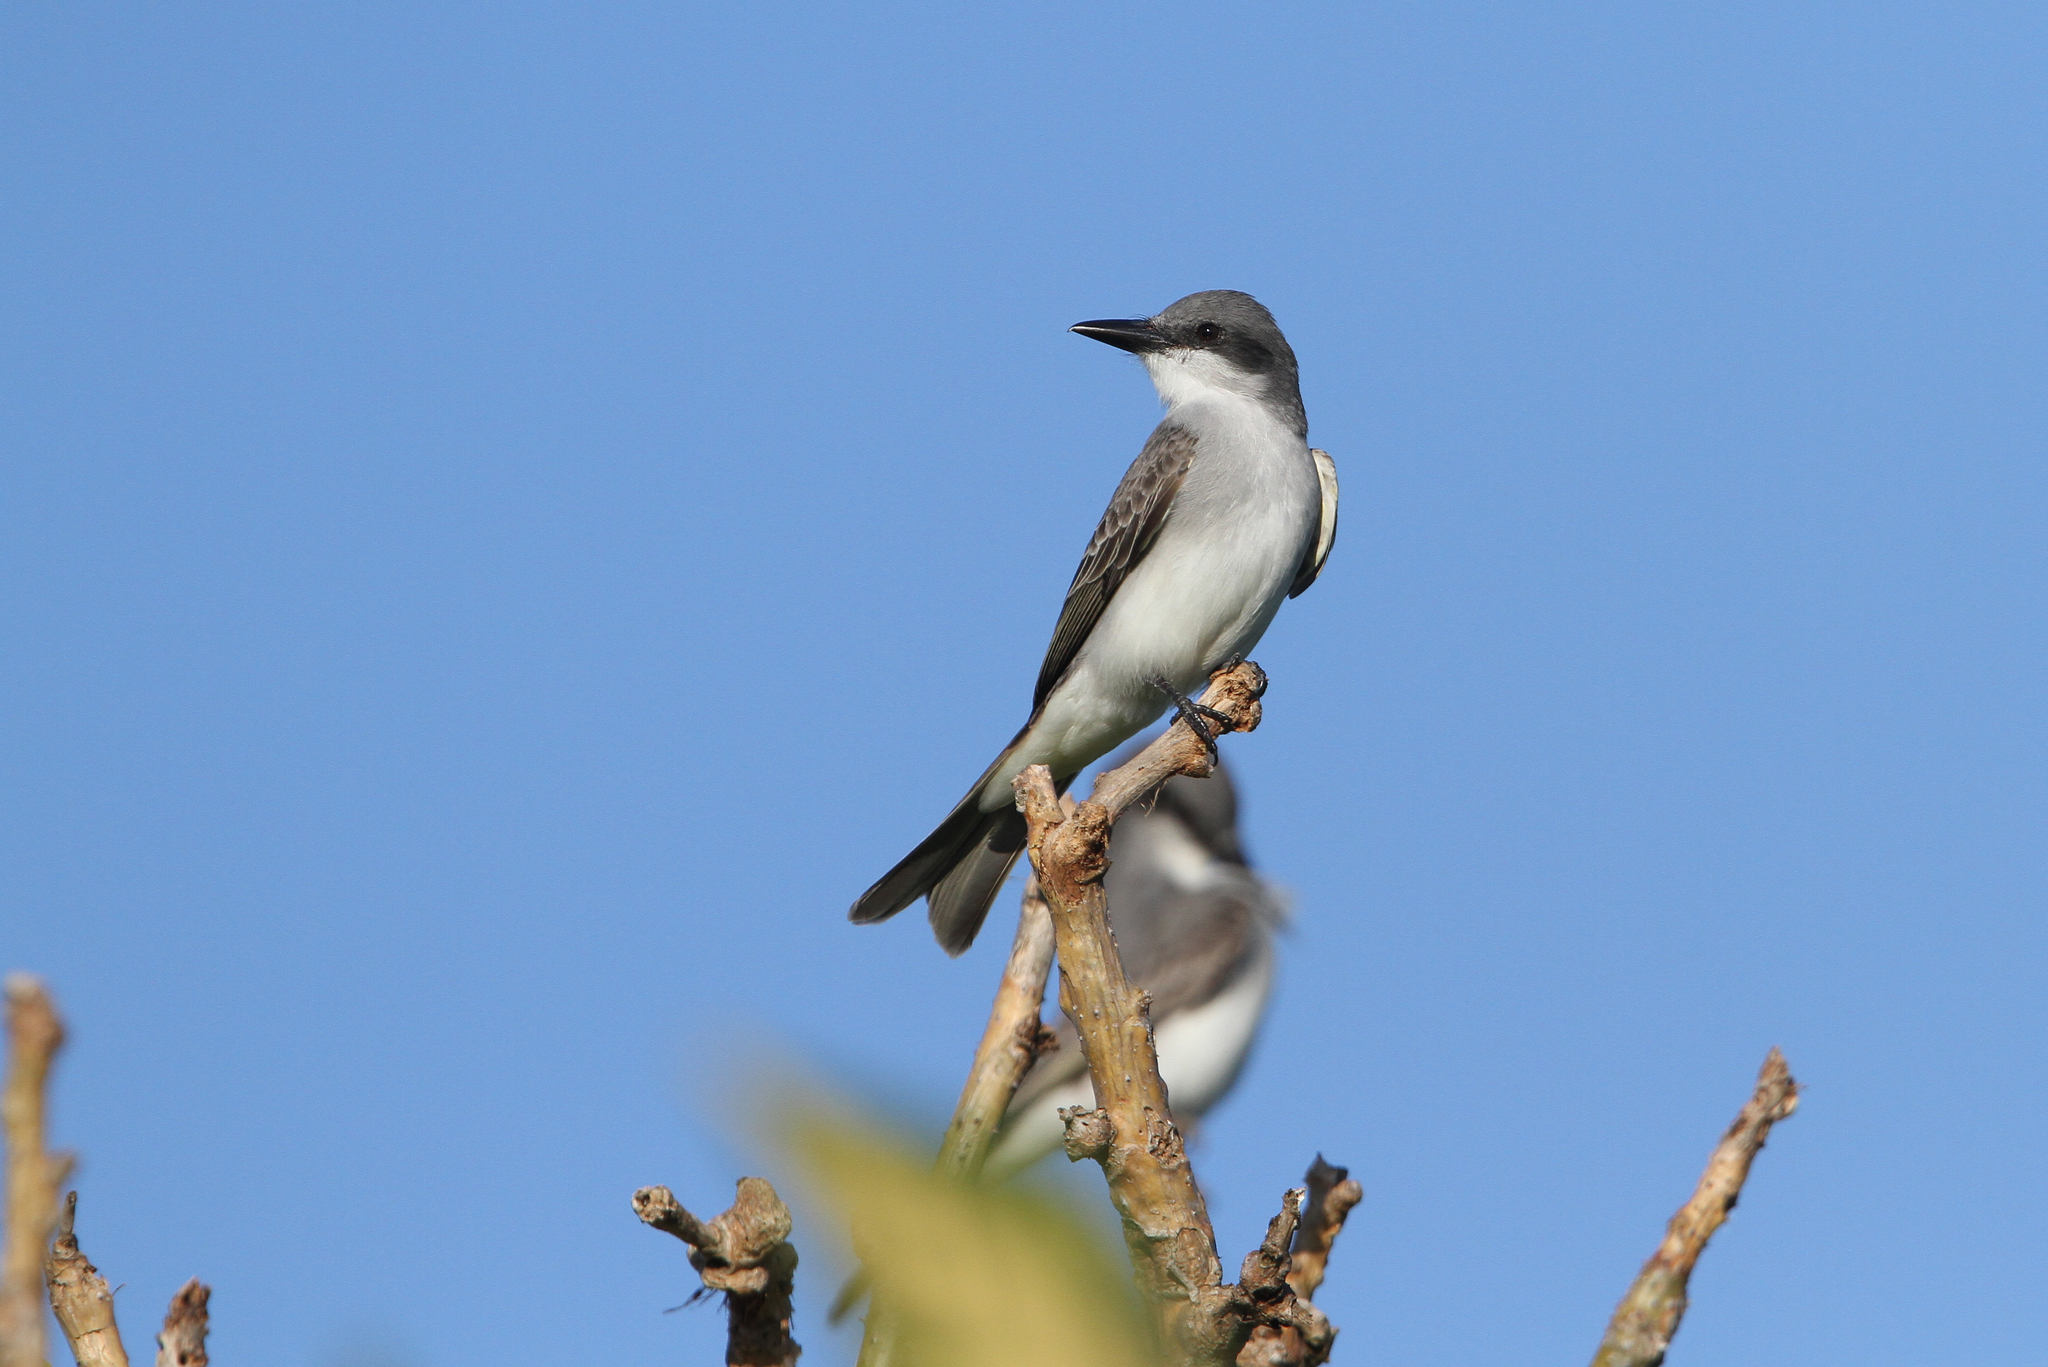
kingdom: Animalia
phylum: Chordata
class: Aves
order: Passeriformes
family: Tyrannidae
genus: Tyrannus
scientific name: Tyrannus dominicensis
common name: Gray kingbird
